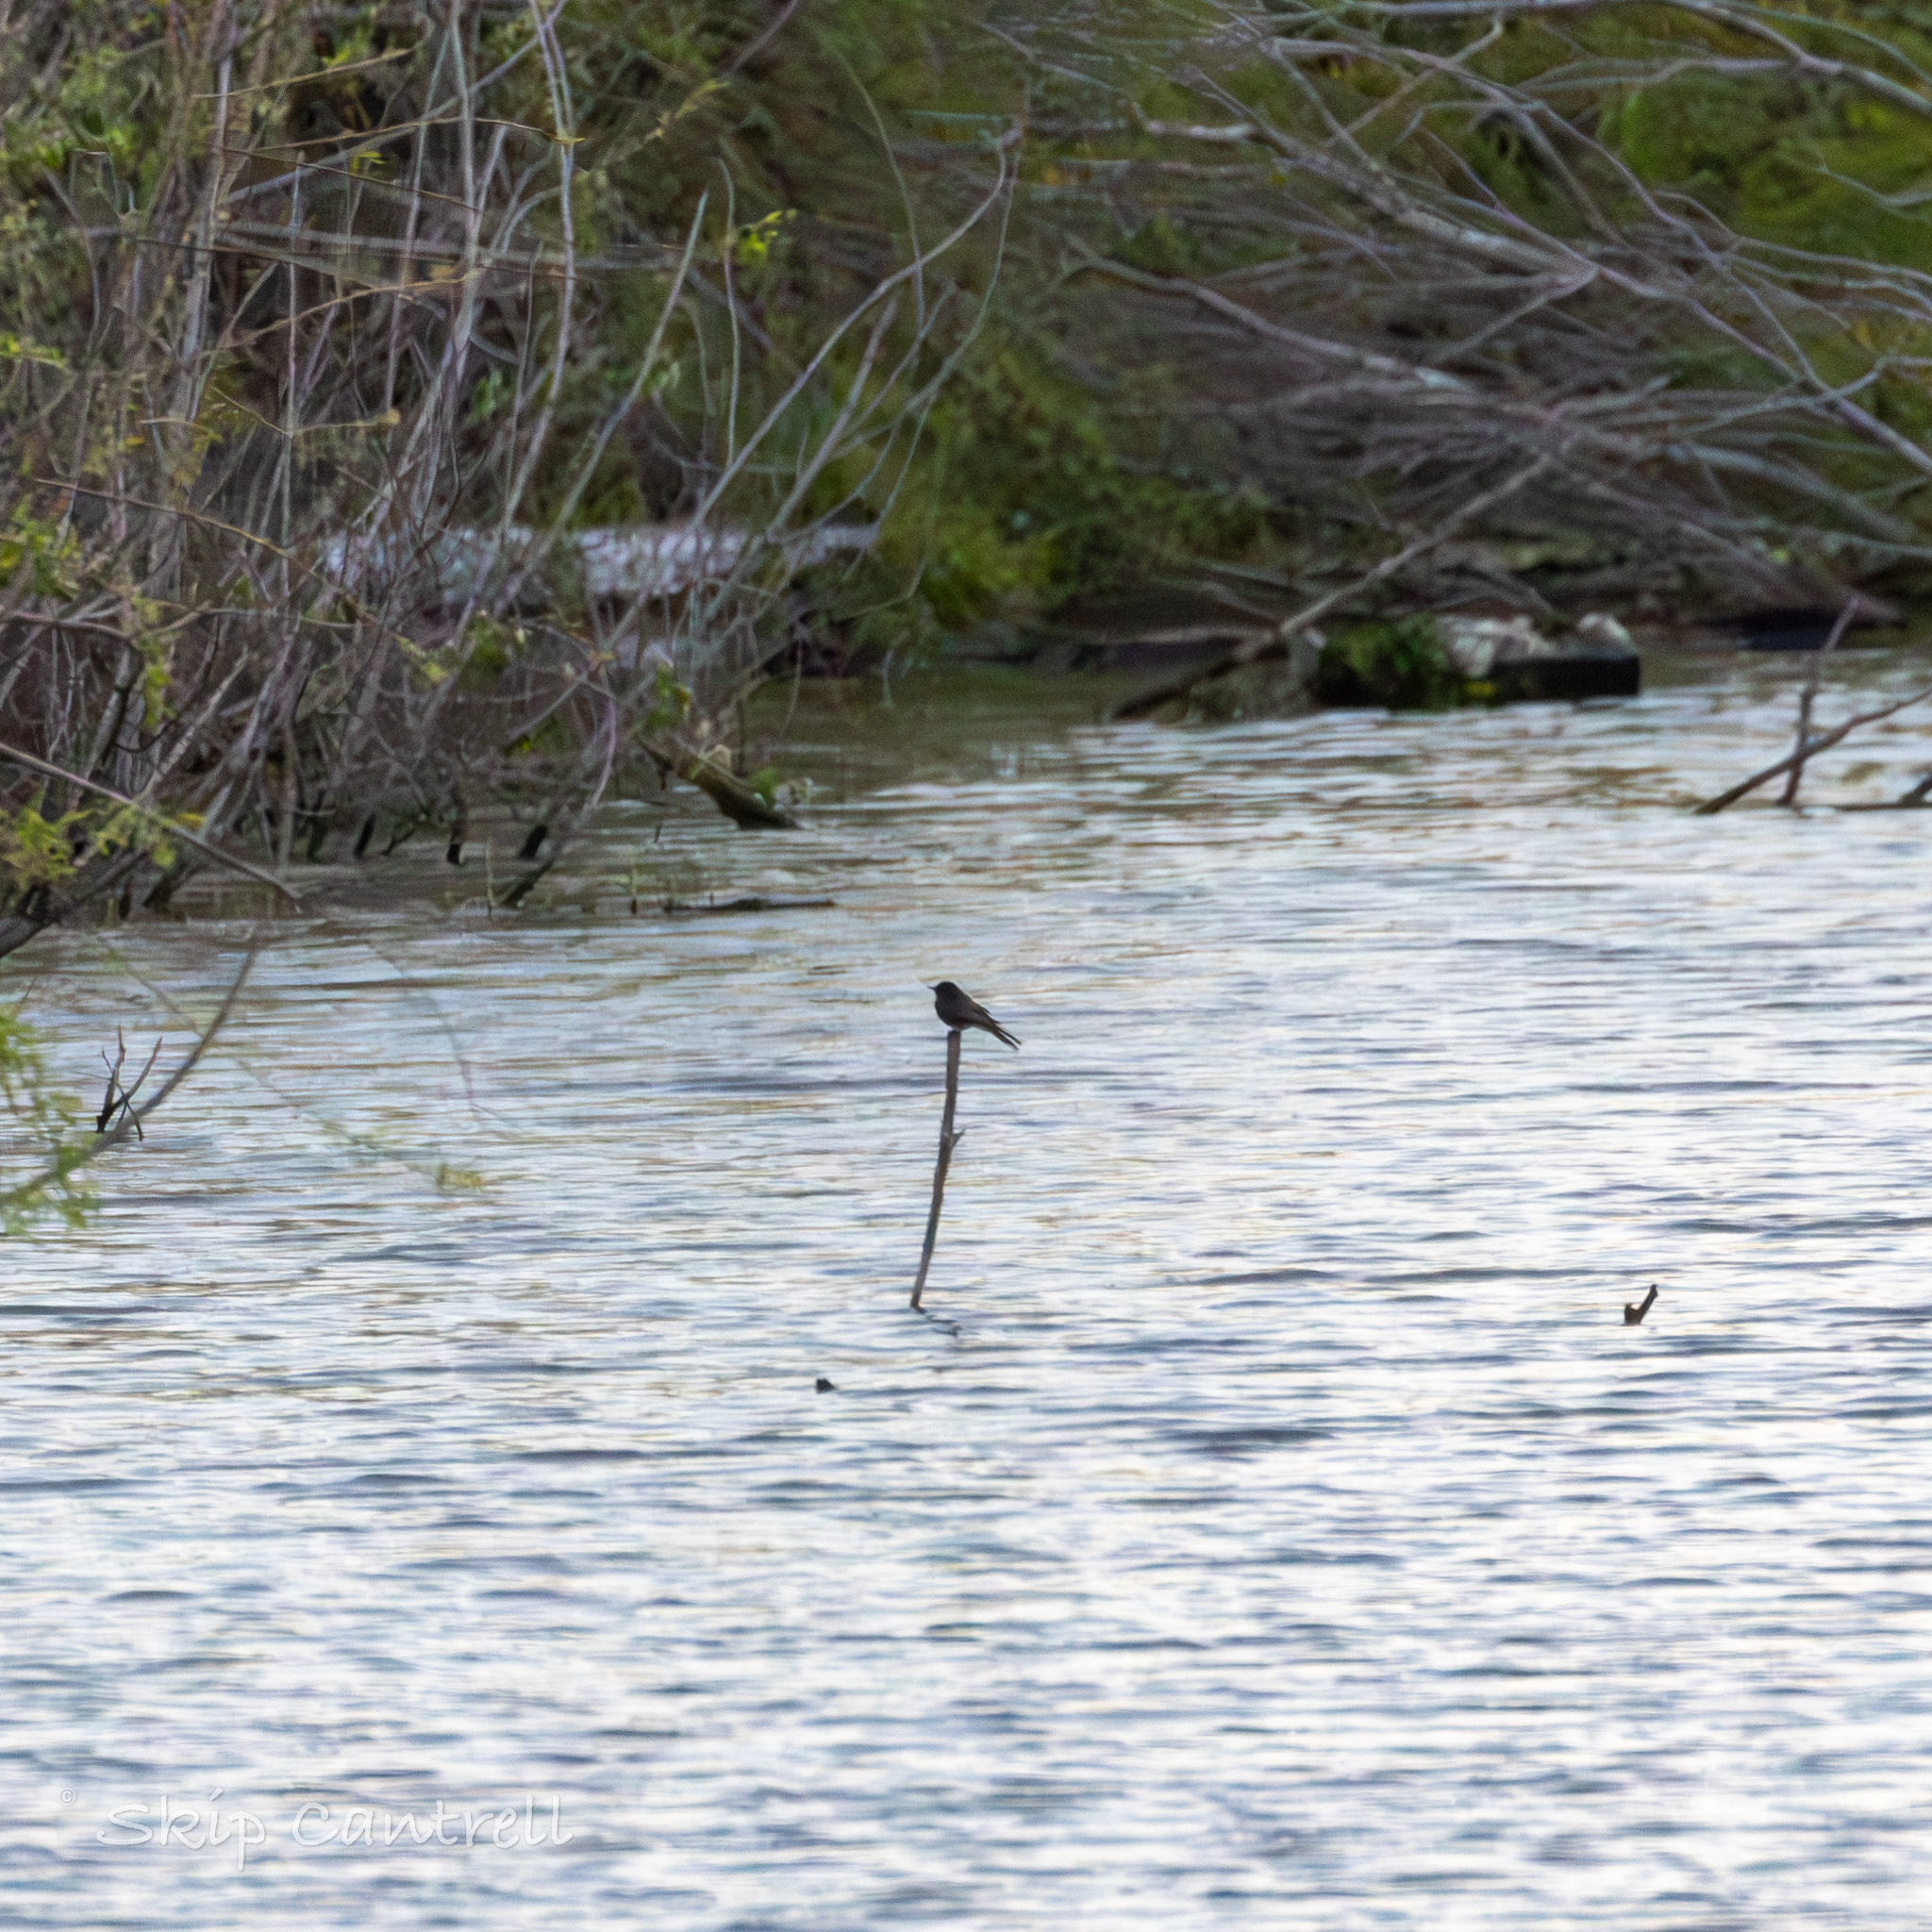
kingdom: Animalia
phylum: Chordata
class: Aves
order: Passeriformes
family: Tyrannidae
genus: Sayornis
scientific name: Sayornis nigricans
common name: Black phoebe
